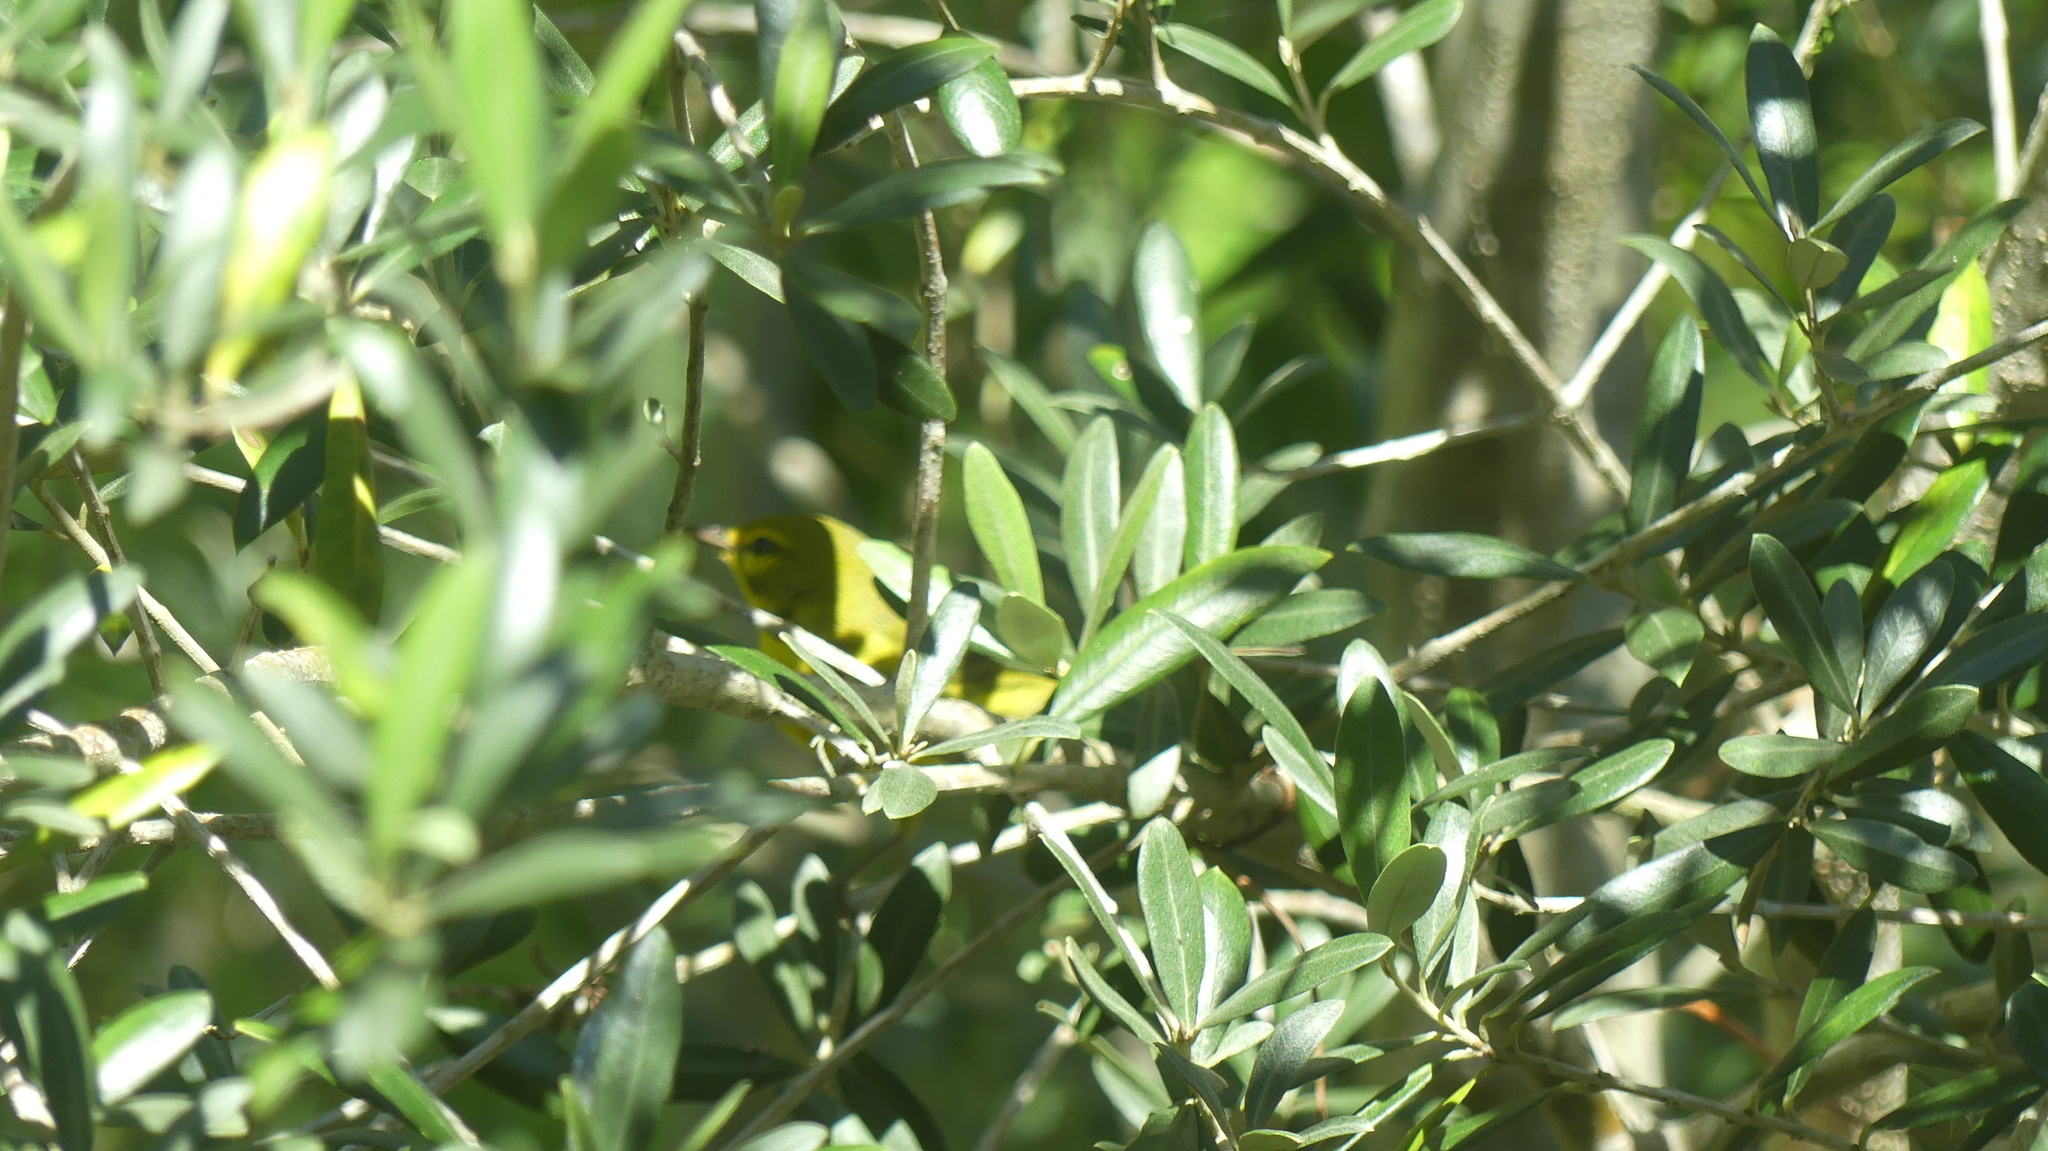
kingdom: Animalia
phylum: Chordata
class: Aves
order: Passeriformes
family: Parulidae
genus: Setophaga
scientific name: Setophaga discolor
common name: Prairie warbler
